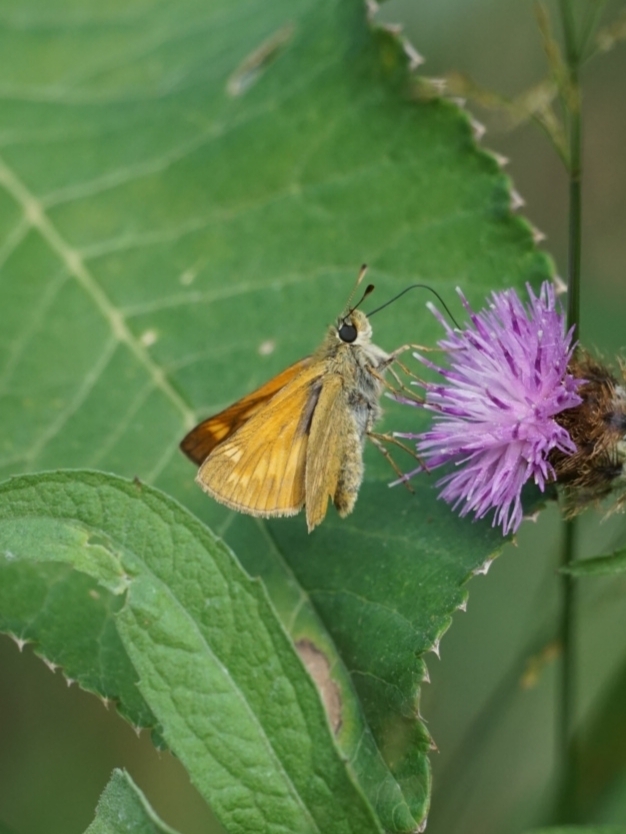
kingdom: Animalia
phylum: Arthropoda
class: Insecta
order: Lepidoptera
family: Hesperiidae
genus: Ochlodes
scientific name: Ochlodes venata
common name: Large skipper
